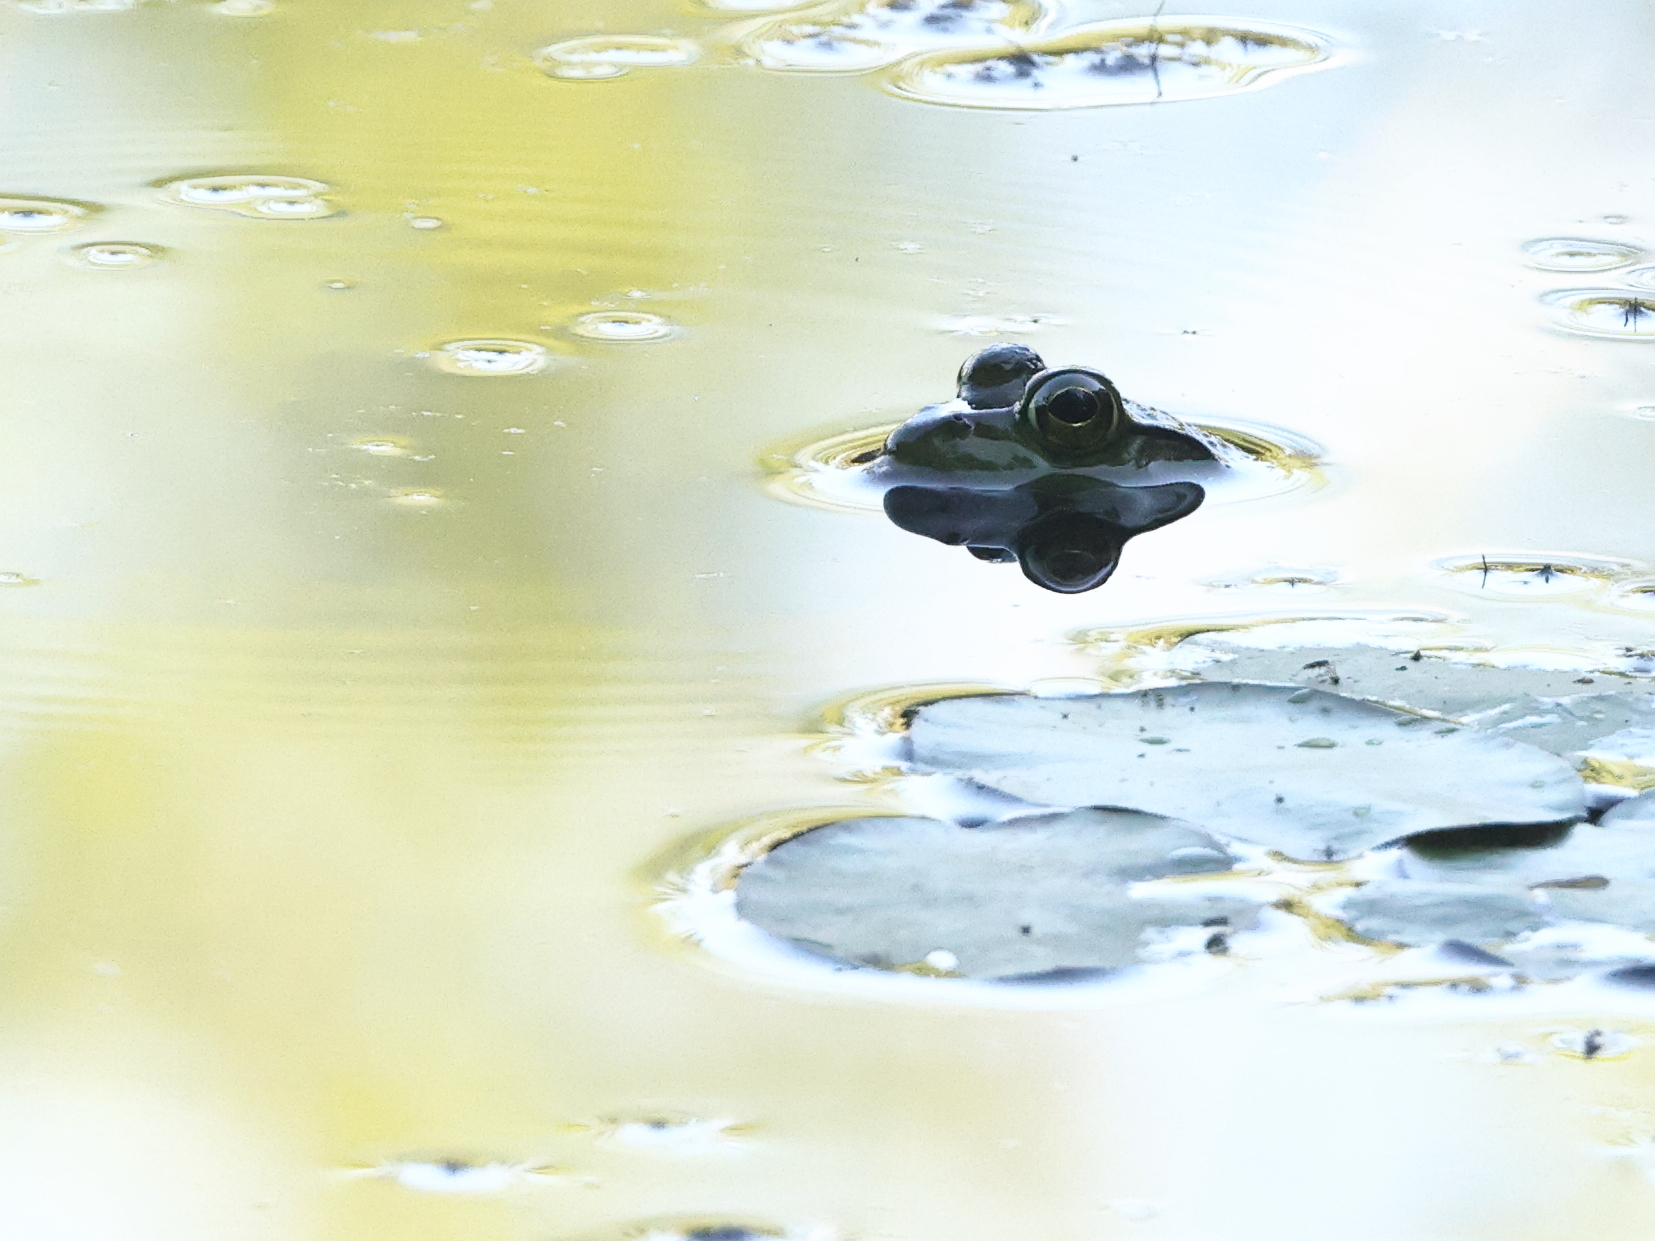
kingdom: Animalia
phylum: Chordata
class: Amphibia
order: Anura
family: Ranidae
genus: Lithobates
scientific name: Lithobates catesbeianus
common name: American bullfrog
